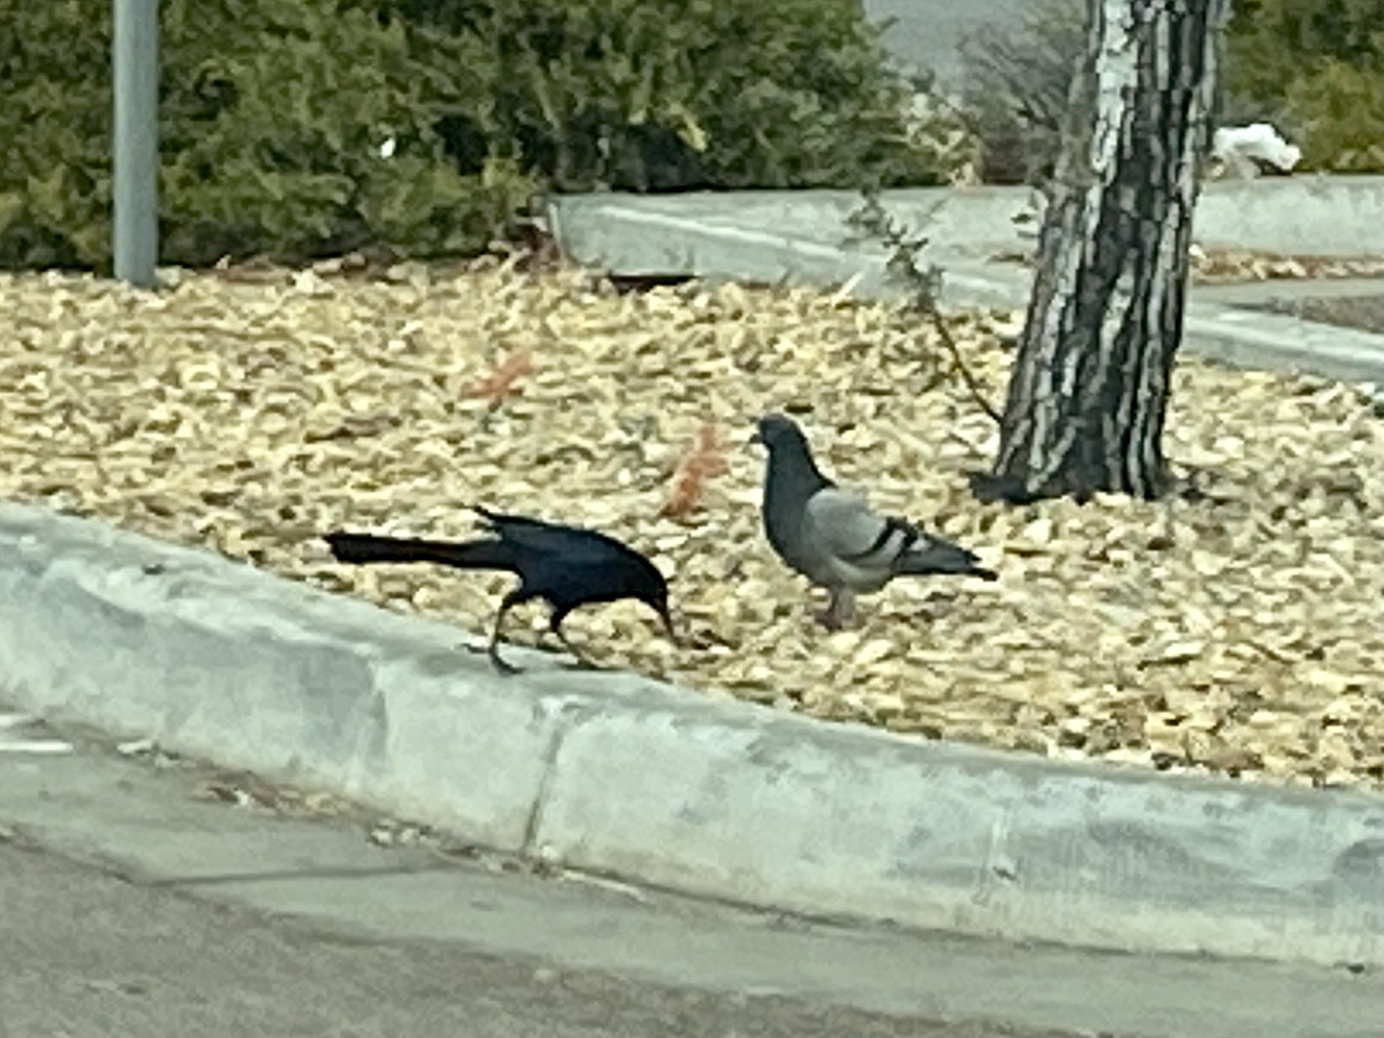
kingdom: Animalia
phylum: Chordata
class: Aves
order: Columbiformes
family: Columbidae
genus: Columba
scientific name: Columba livia
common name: Rock pigeon
